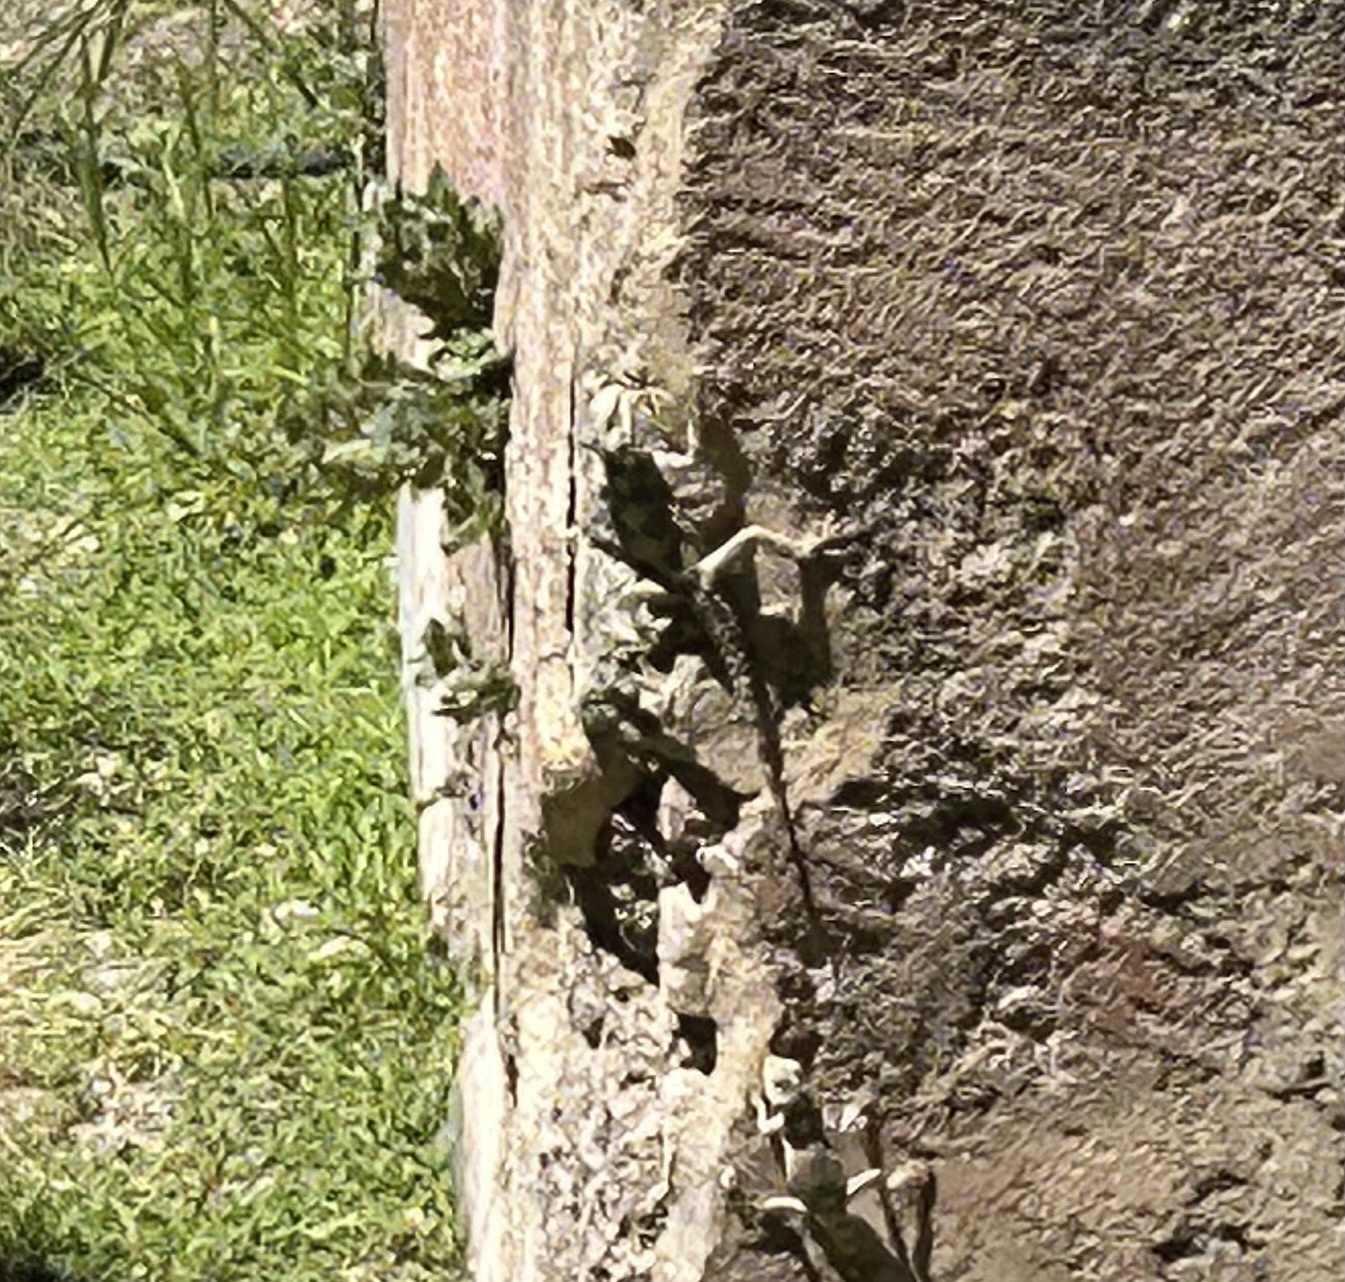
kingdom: Animalia
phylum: Chordata
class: Squamata
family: Agamidae
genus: Stellagama
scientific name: Stellagama stellio
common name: Starred agama
